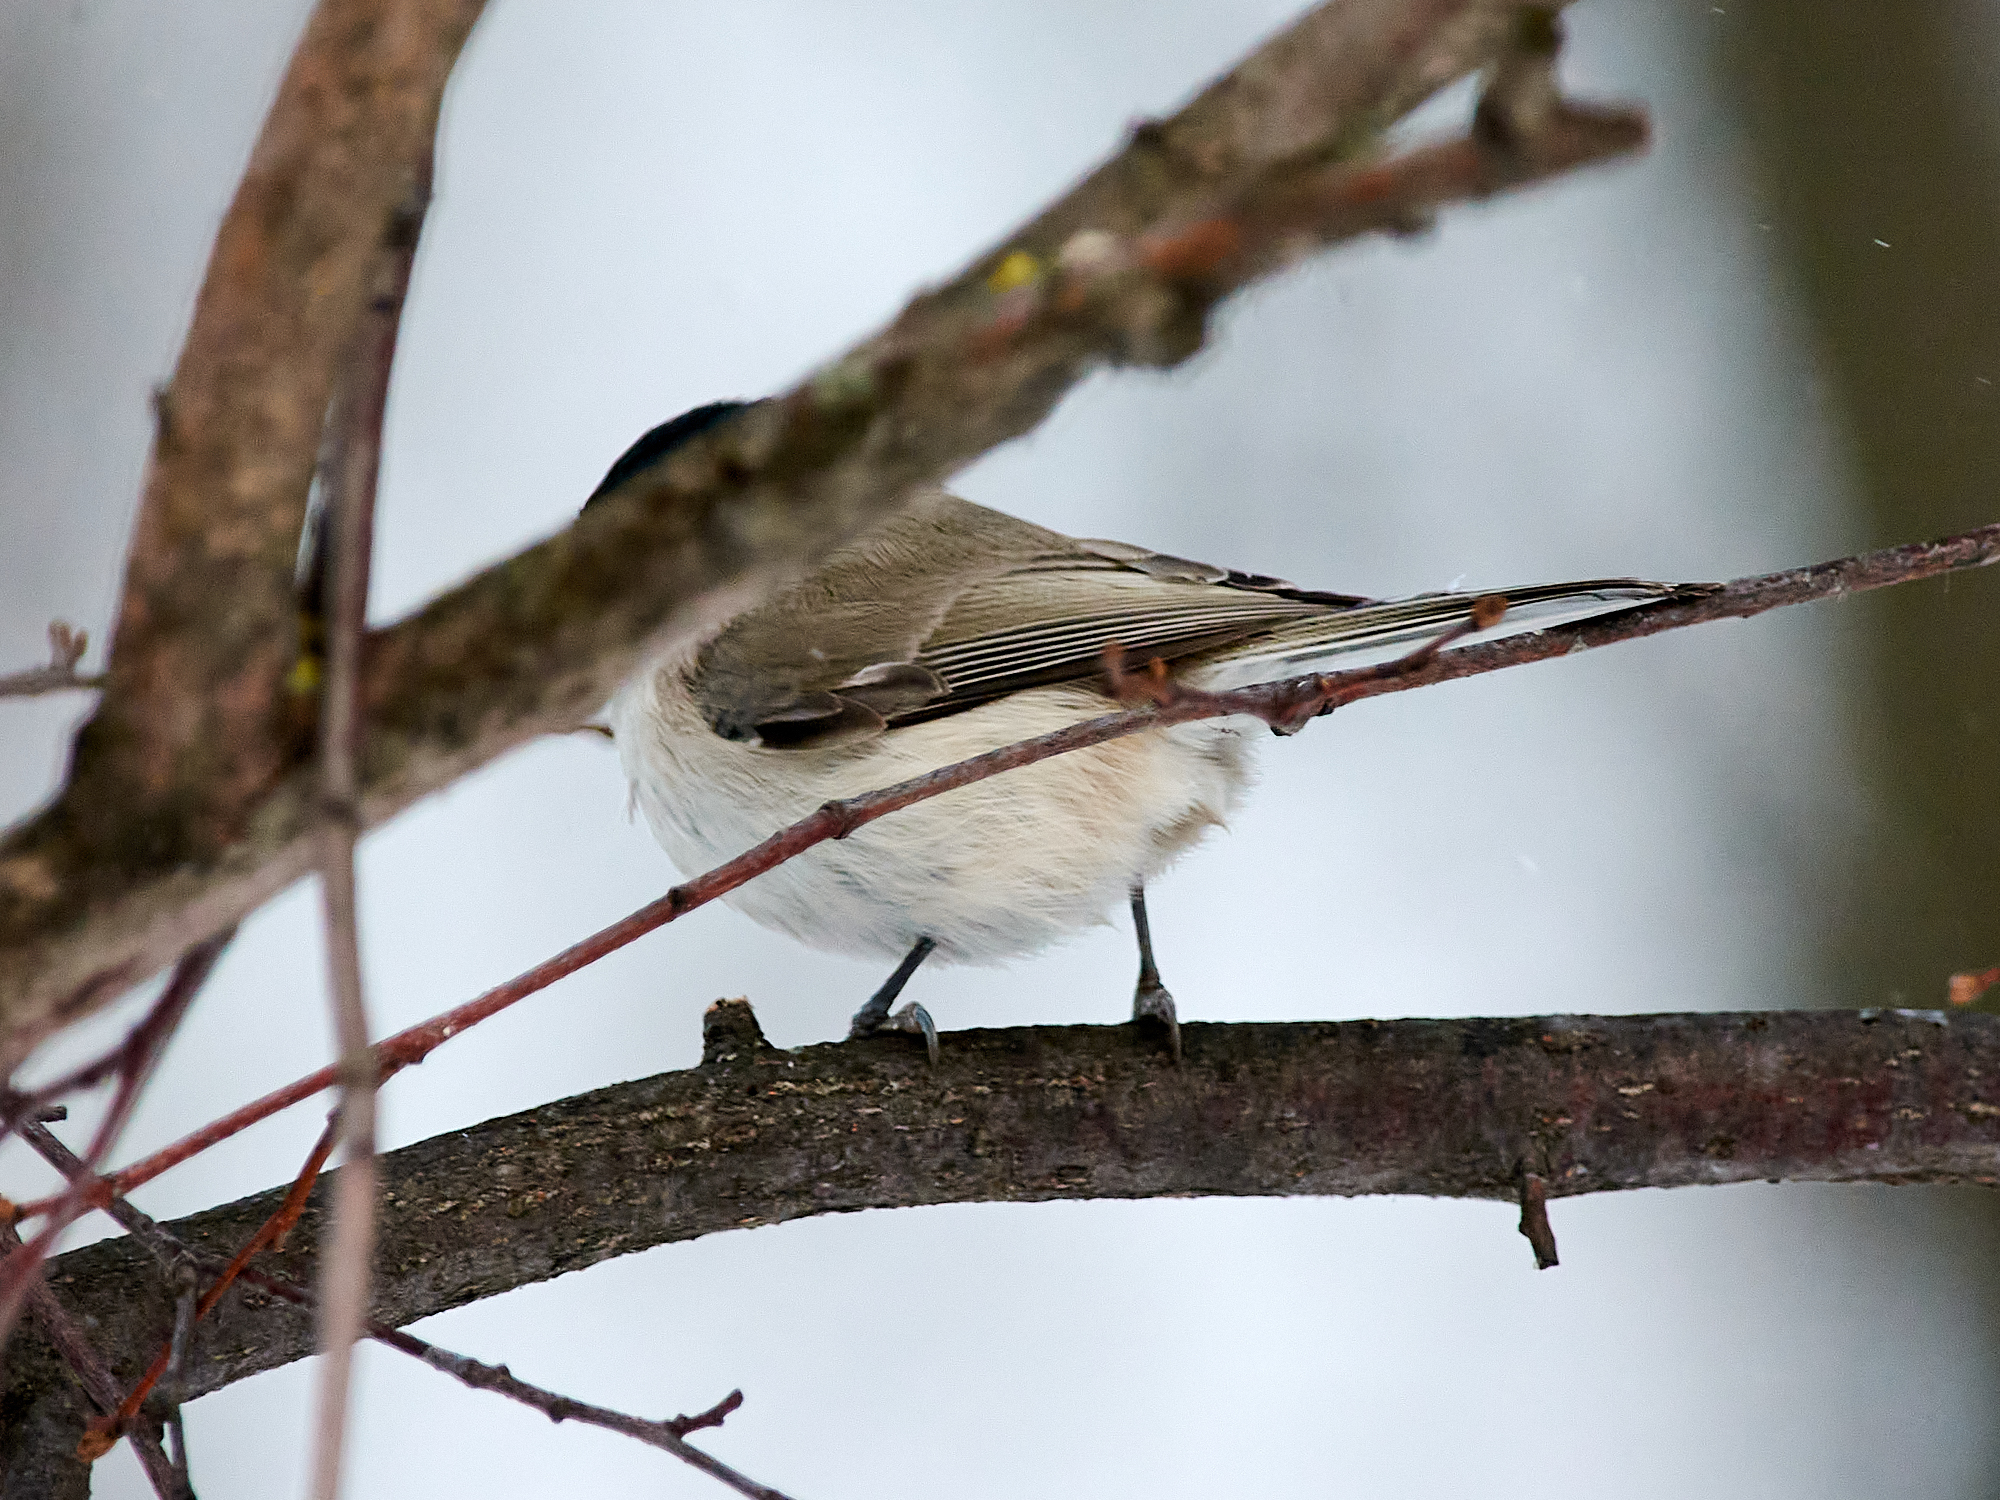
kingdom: Animalia
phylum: Chordata
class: Aves
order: Passeriformes
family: Paridae
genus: Poecile
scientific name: Poecile palustris
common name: Marsh tit
